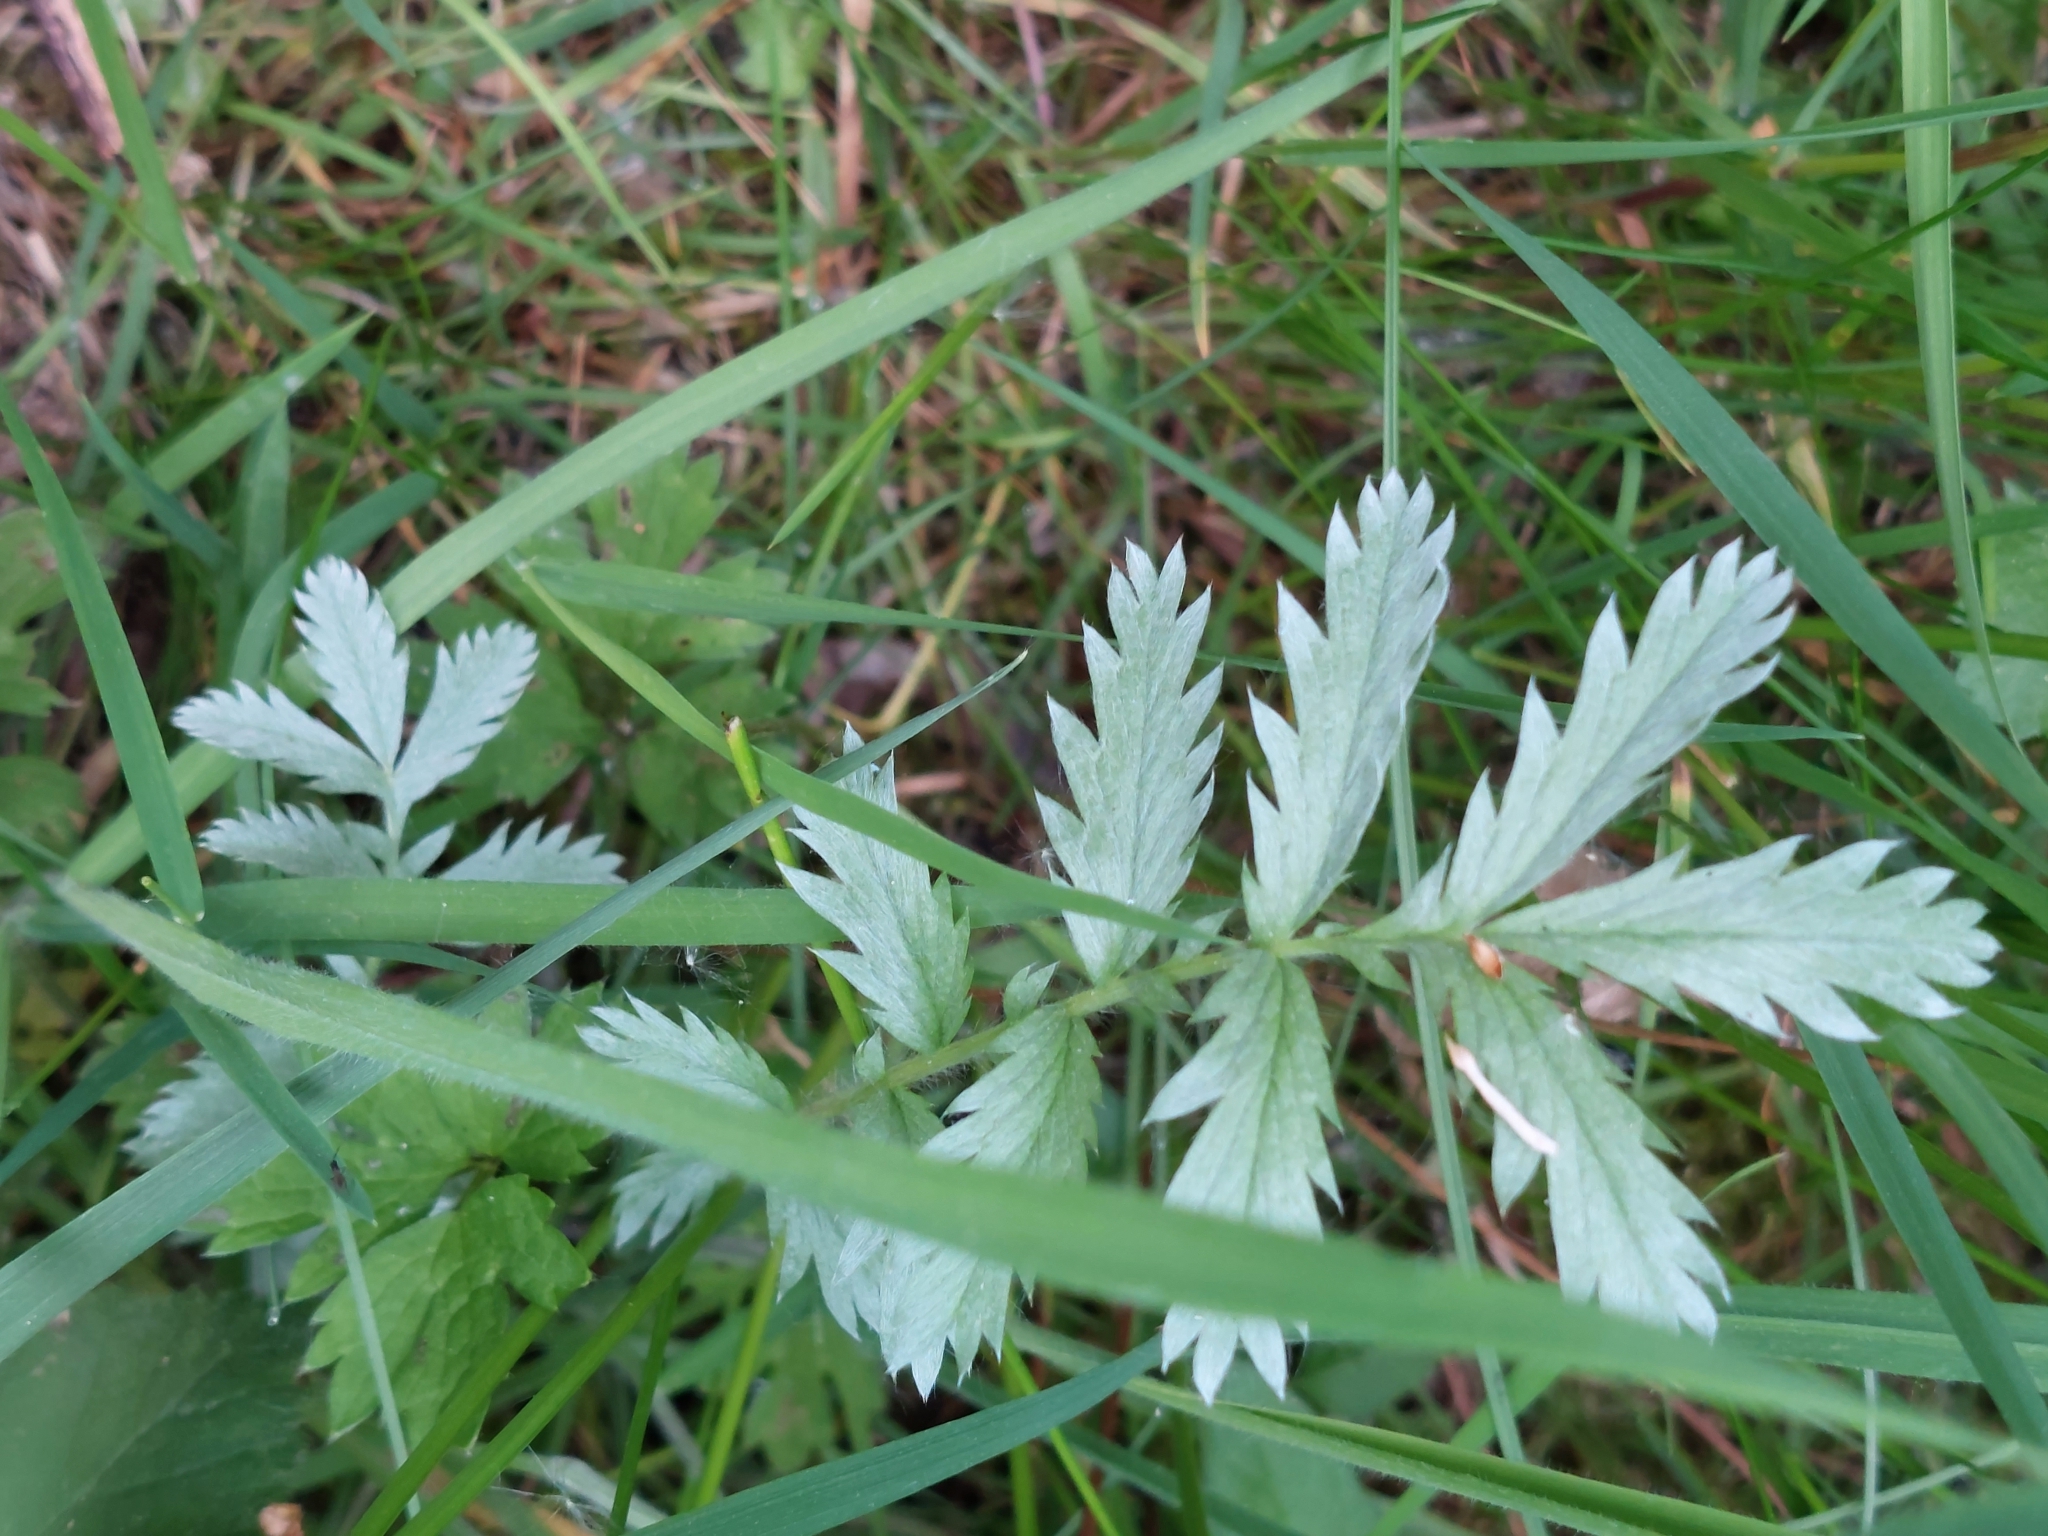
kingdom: Plantae
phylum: Tracheophyta
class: Magnoliopsida
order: Rosales
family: Rosaceae
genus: Argentina
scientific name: Argentina anserina
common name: Common silverweed
